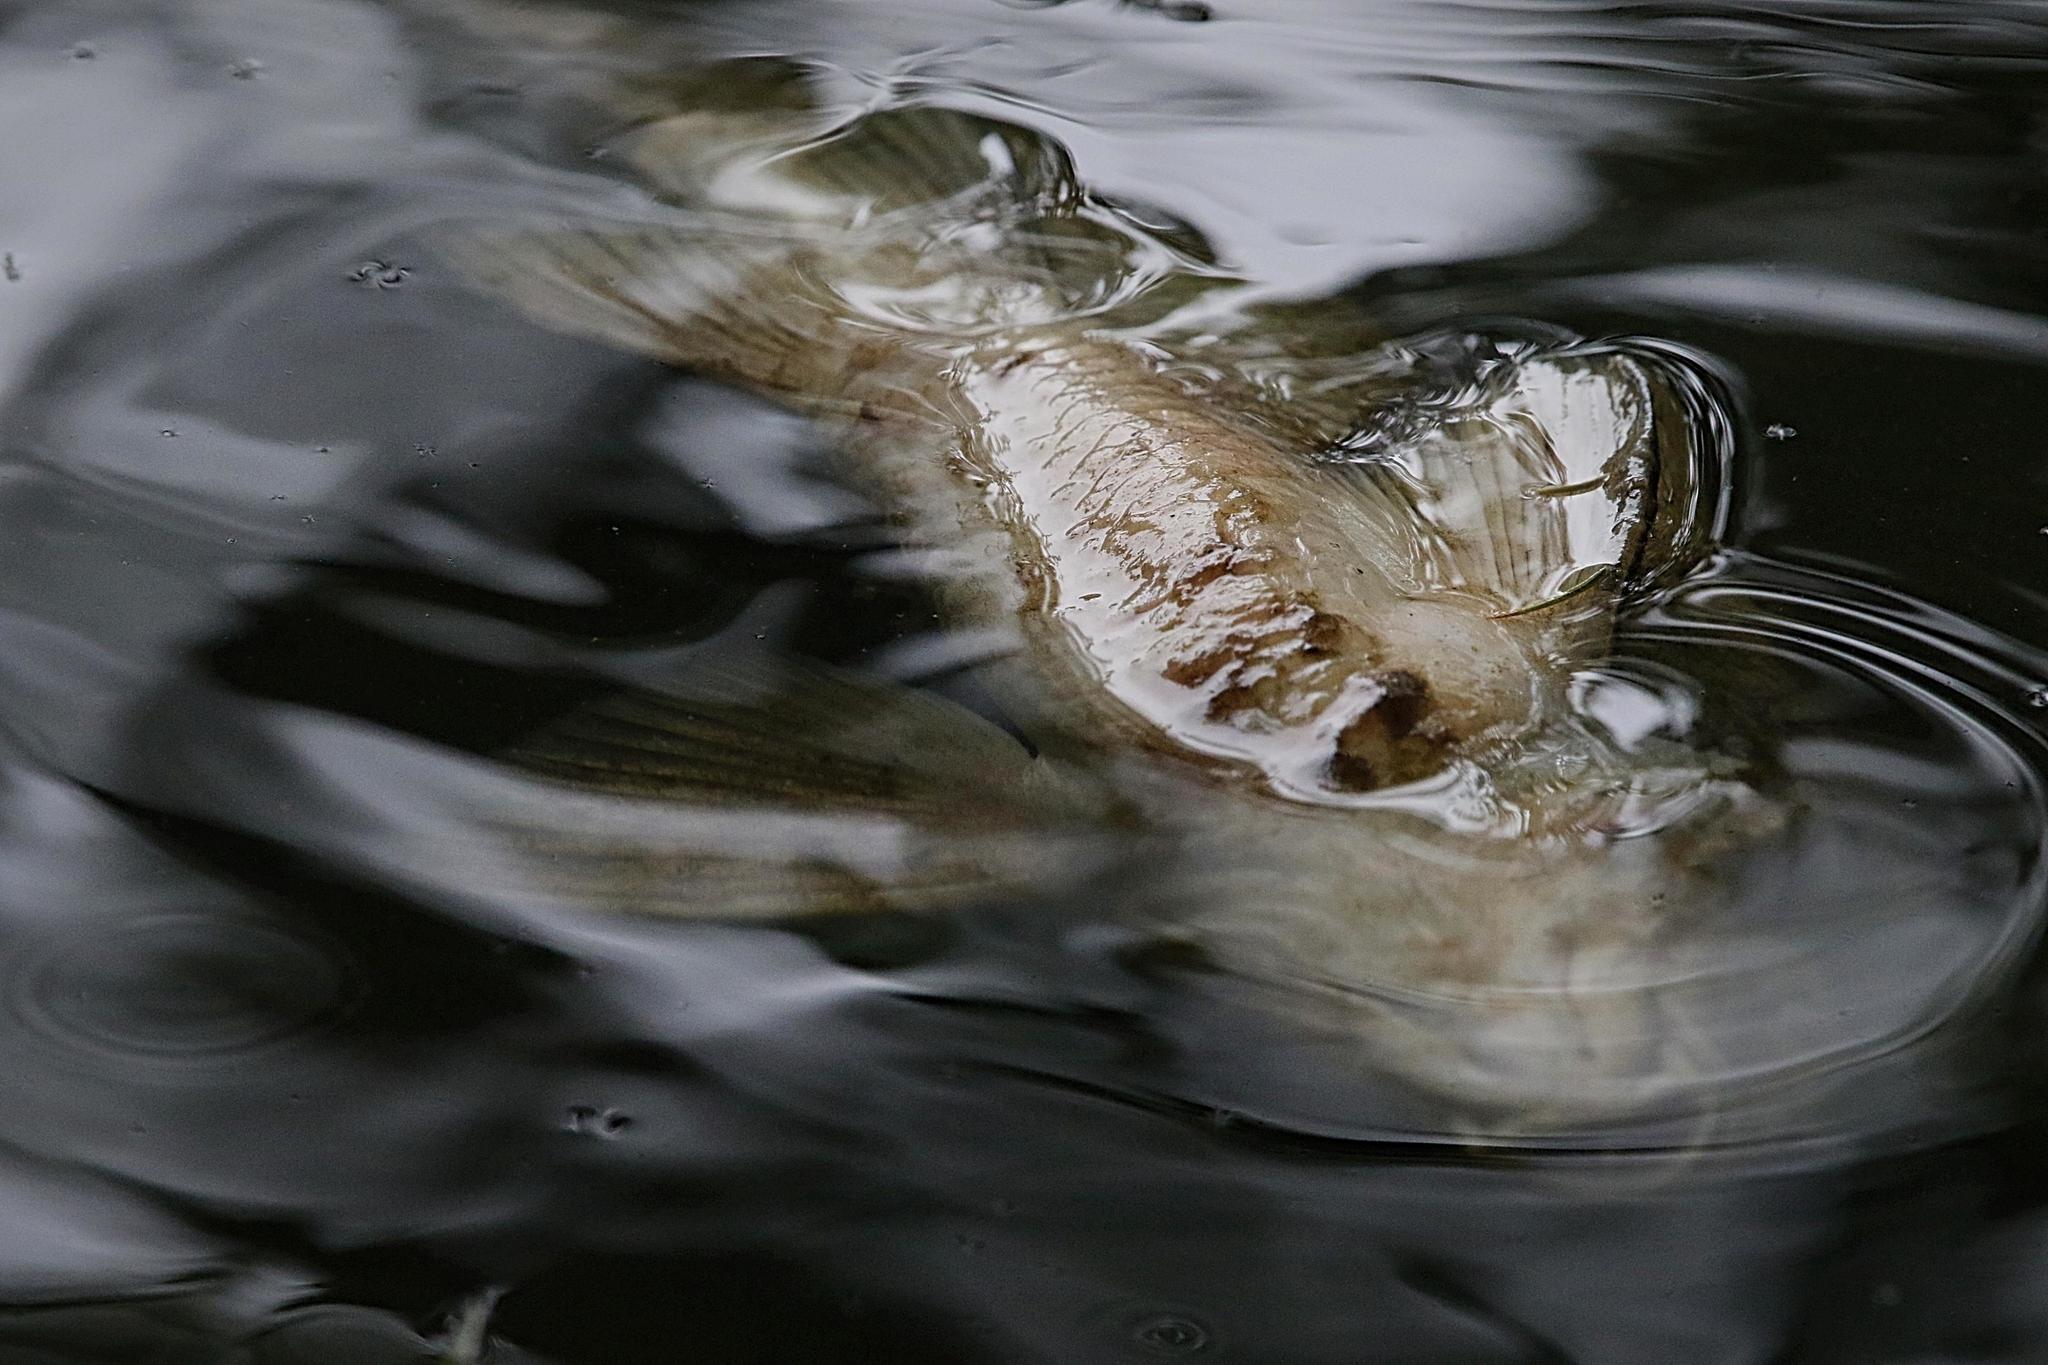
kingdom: Animalia
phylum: Chordata
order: Cypriniformes
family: Cyprinidae
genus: Cyprinus
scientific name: Cyprinus carpio
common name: Common carp
